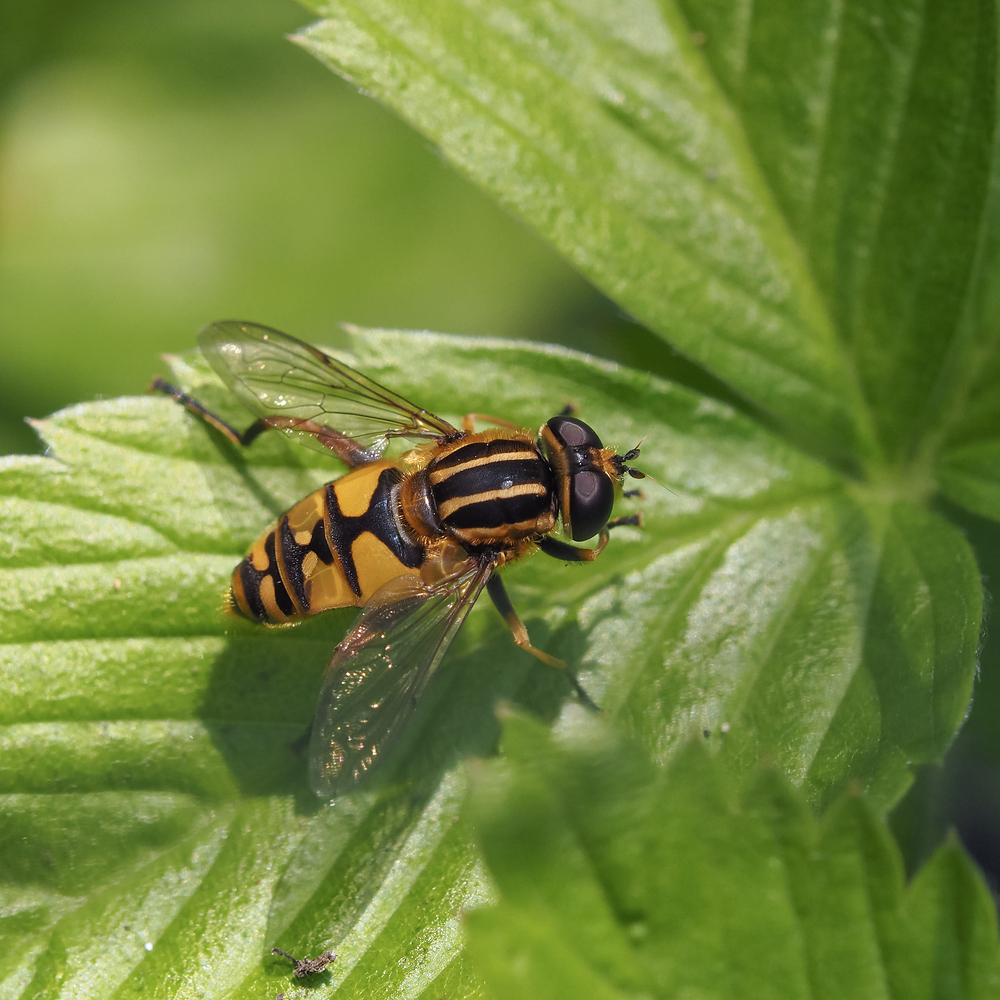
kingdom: Animalia
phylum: Arthropoda
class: Insecta
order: Diptera
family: Syrphidae
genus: Helophilus
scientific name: Helophilus pendulus
